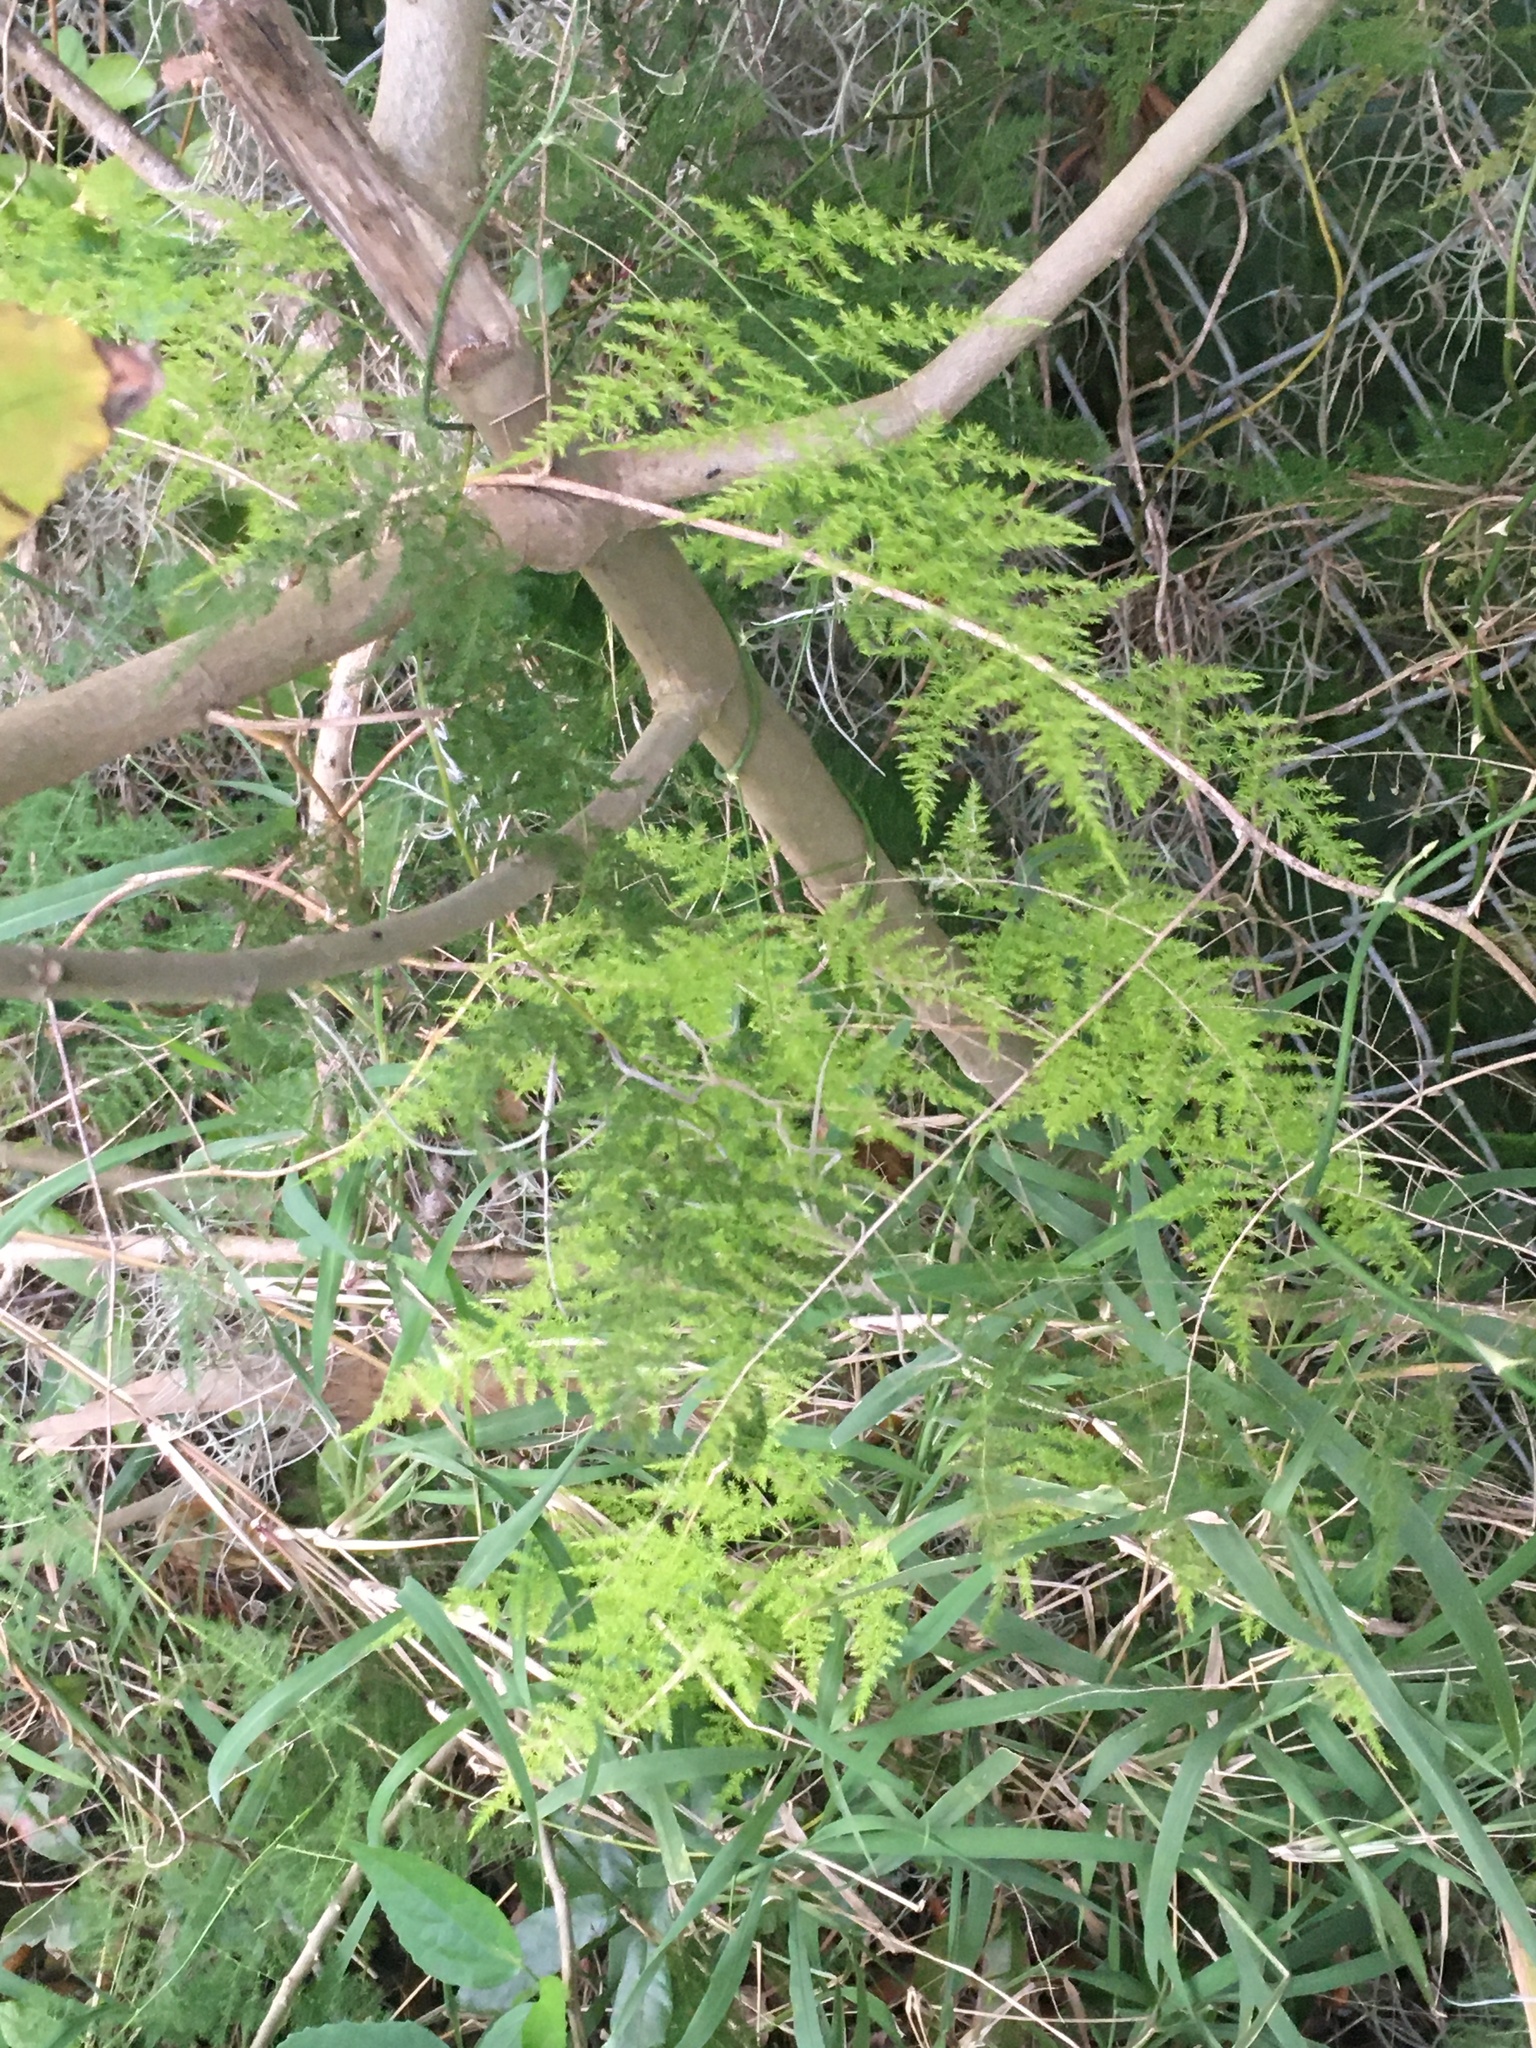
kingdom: Plantae
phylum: Tracheophyta
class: Liliopsida
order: Asparagales
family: Asparagaceae
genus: Asparagus
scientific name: Asparagus setaceus
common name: Common asparagus fern
